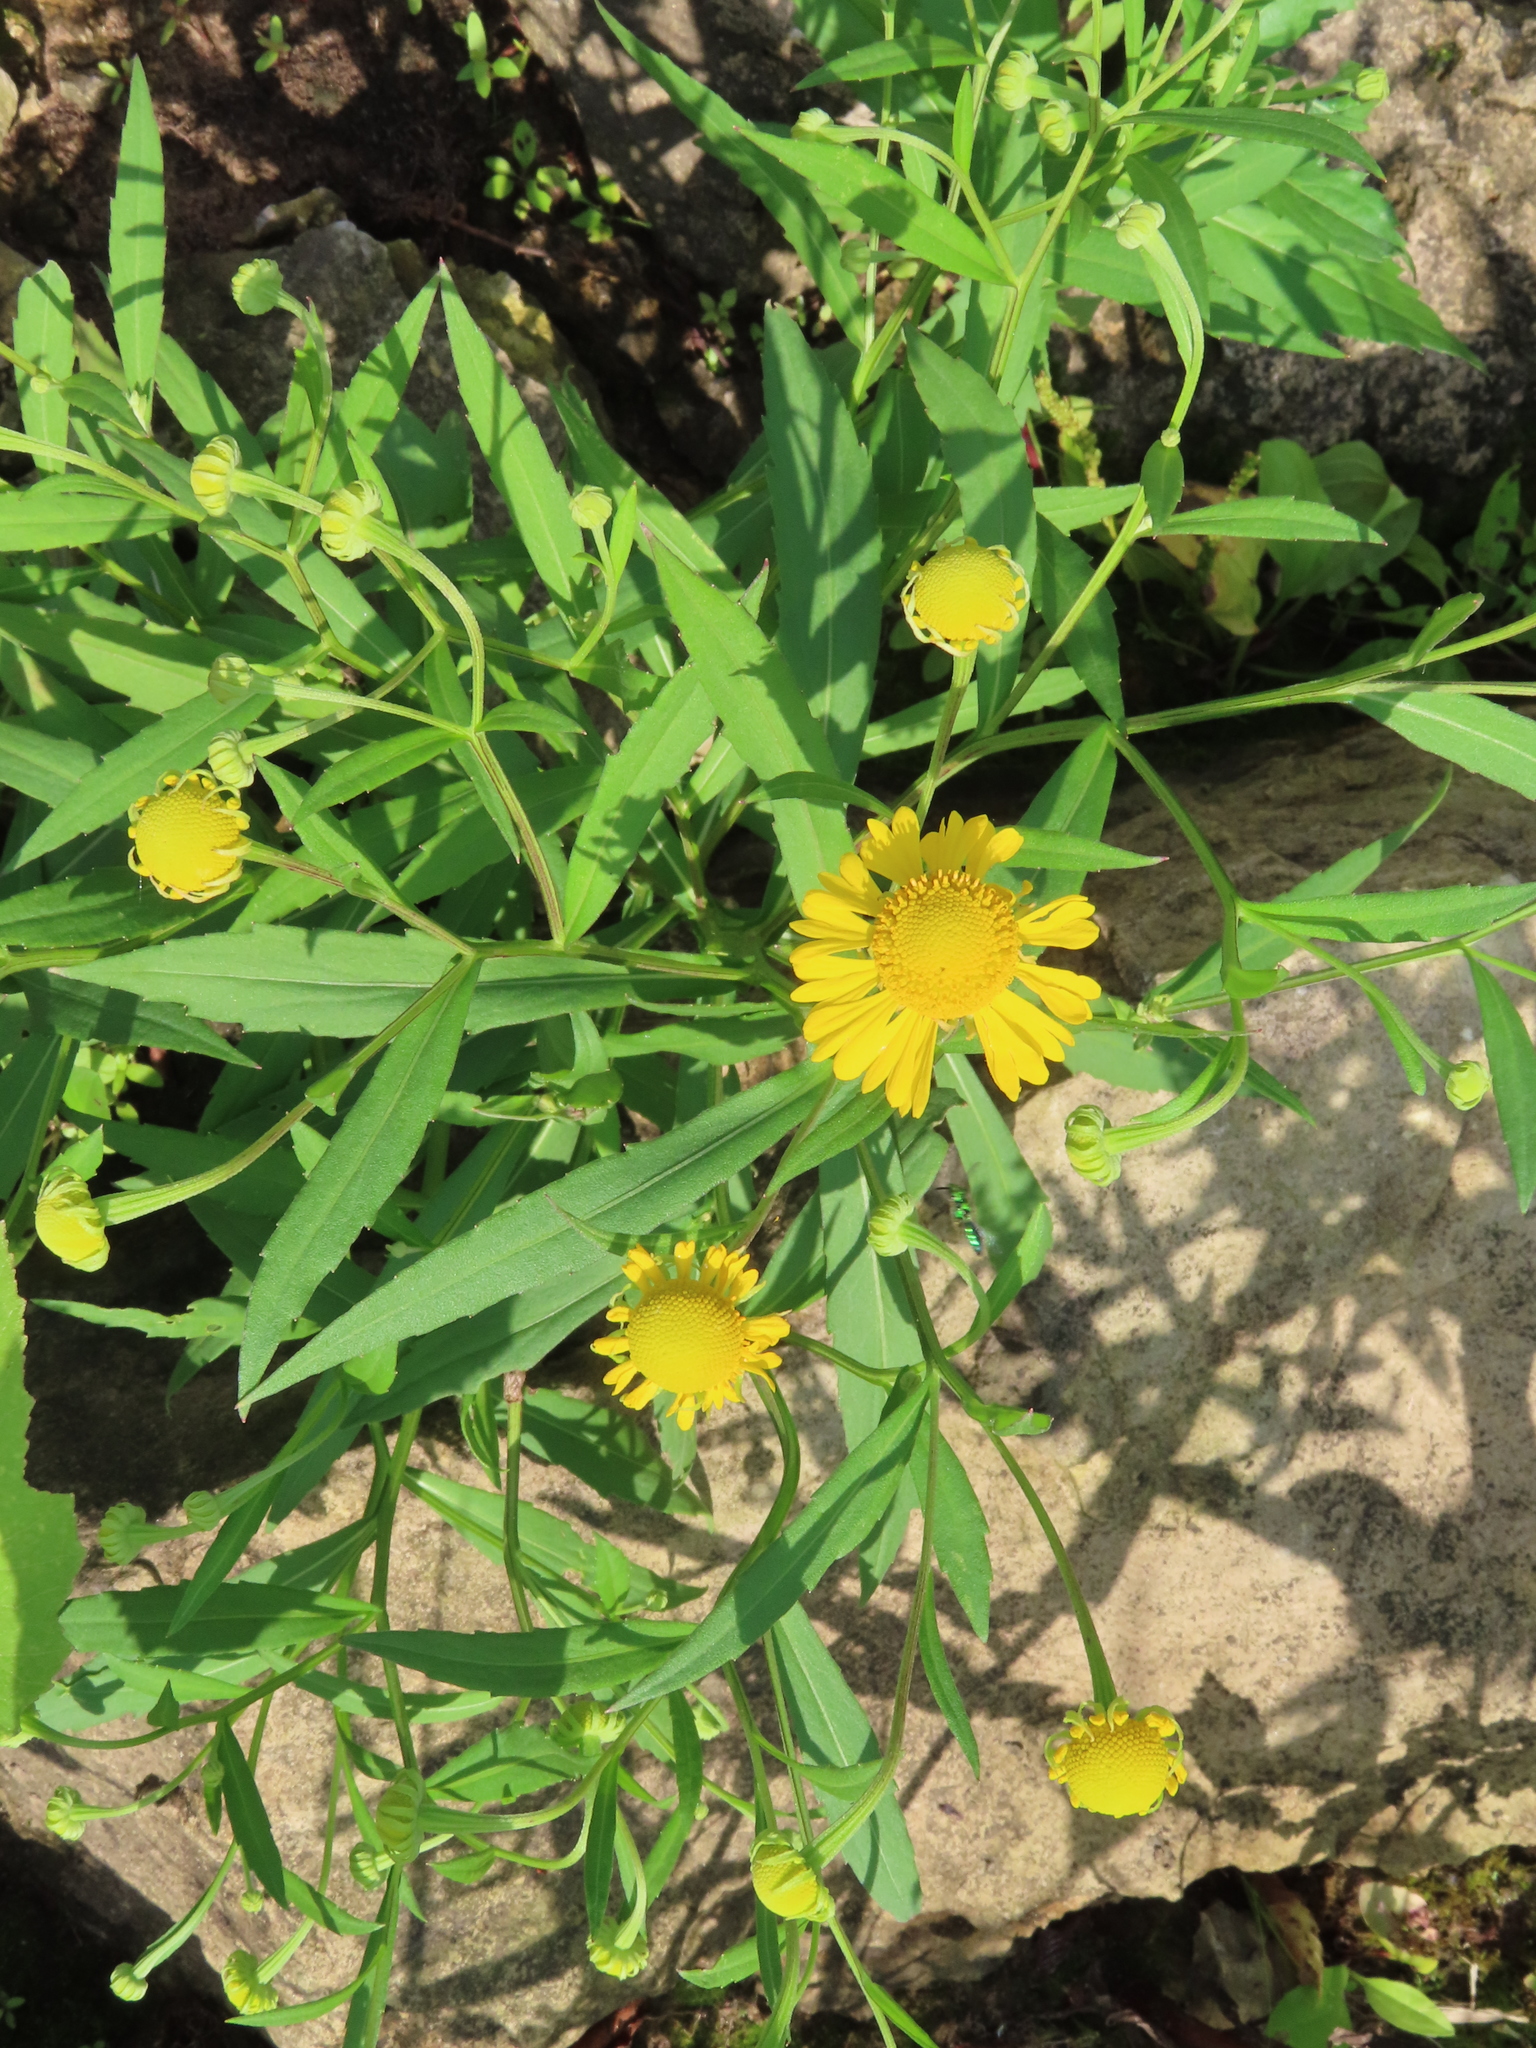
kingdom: Plantae
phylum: Tracheophyta
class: Magnoliopsida
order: Asterales
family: Asteraceae
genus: Helenium
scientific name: Helenium autumnale
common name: Sneezeweed
